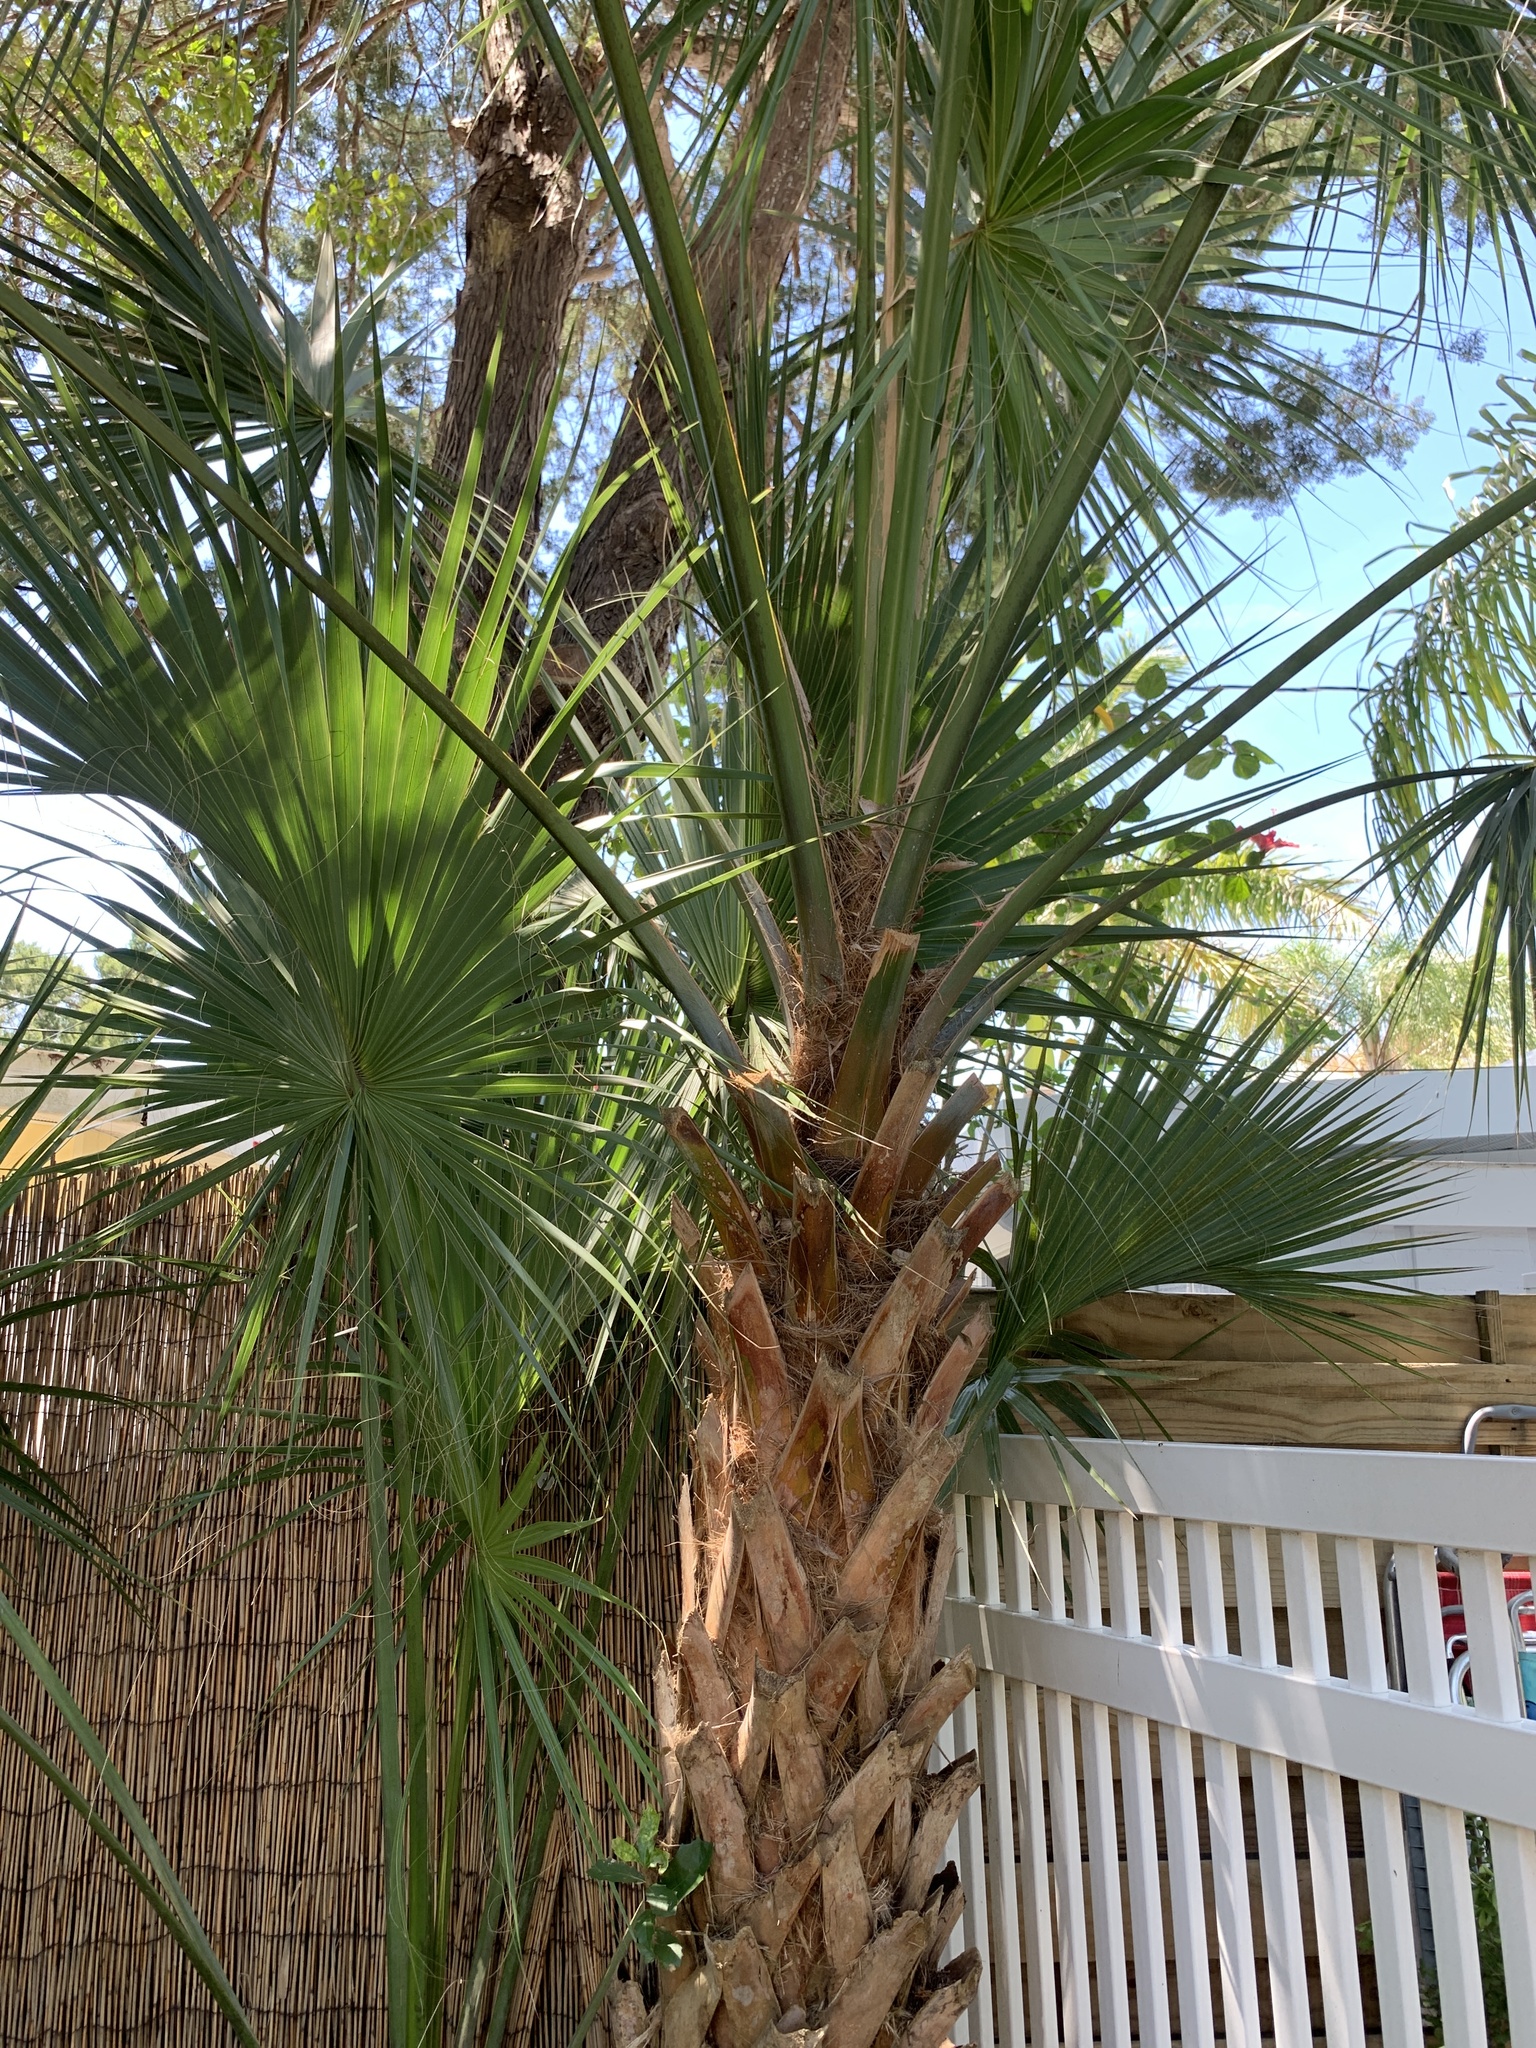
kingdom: Plantae
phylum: Tracheophyta
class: Liliopsida
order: Arecales
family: Arecaceae
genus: Sabal
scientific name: Sabal palmetto
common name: Blue palmetto
